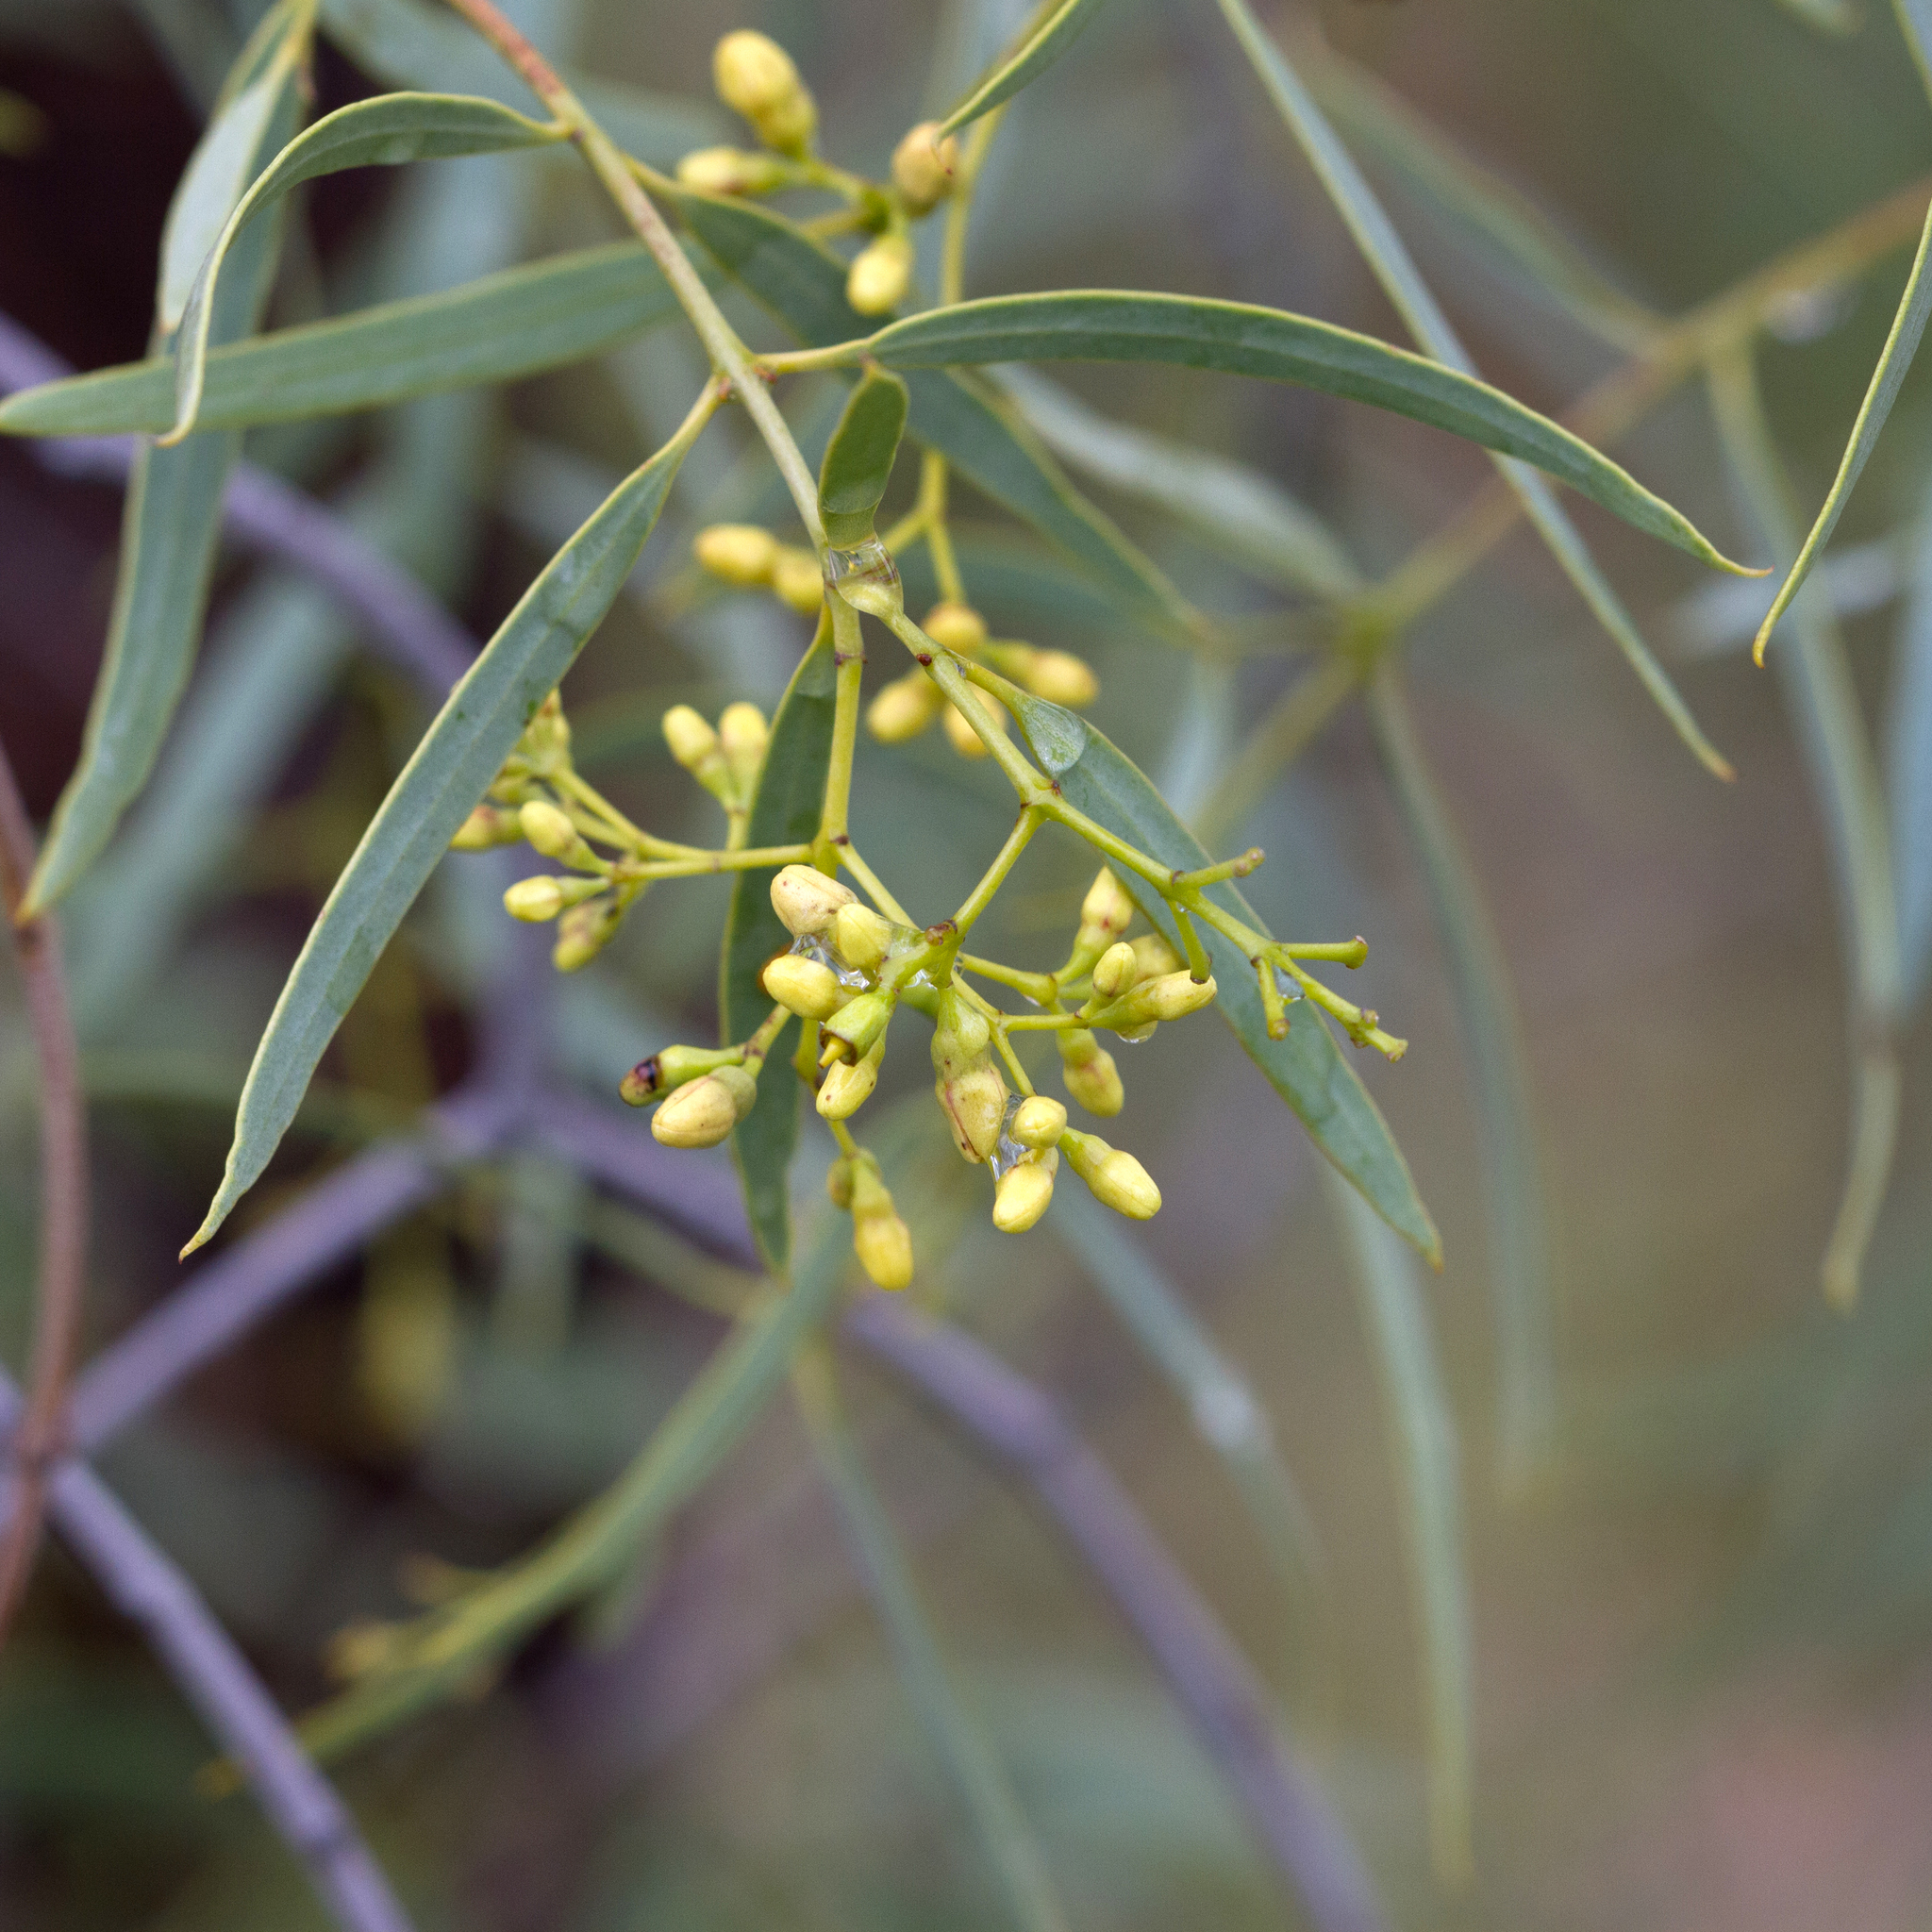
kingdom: Plantae
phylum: Tracheophyta
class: Magnoliopsida
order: Santalales
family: Santalaceae
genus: Santalum
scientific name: Santalum lanceolatum
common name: Ankwerley
